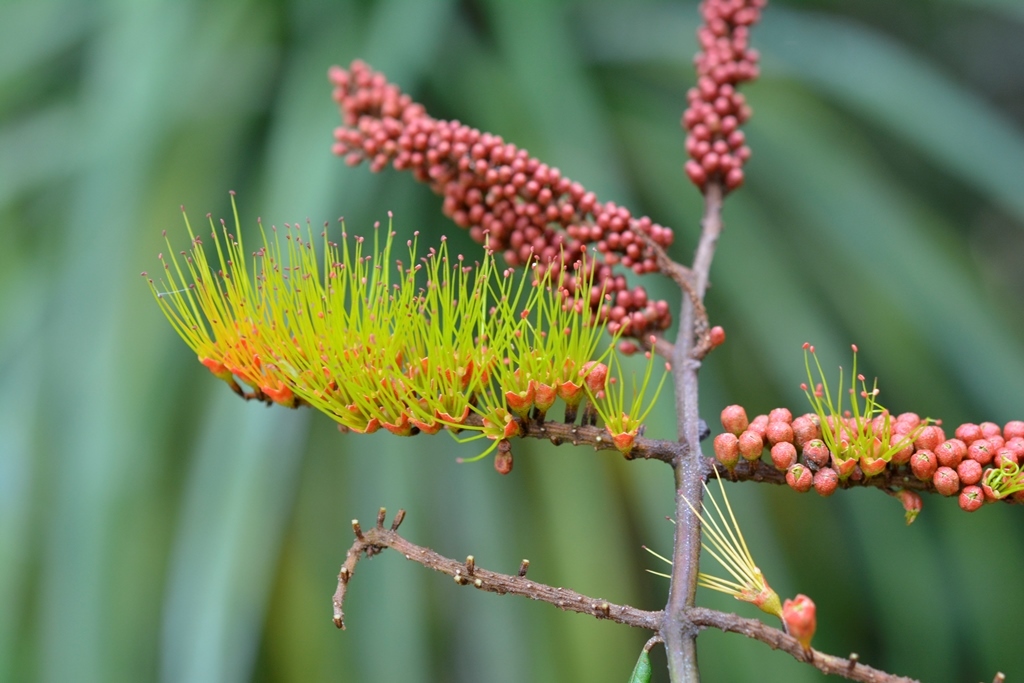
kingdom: Plantae
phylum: Tracheophyta
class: Magnoliopsida
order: Myrtales
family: Combretaceae
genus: Combretum
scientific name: Combretum fruticosum
